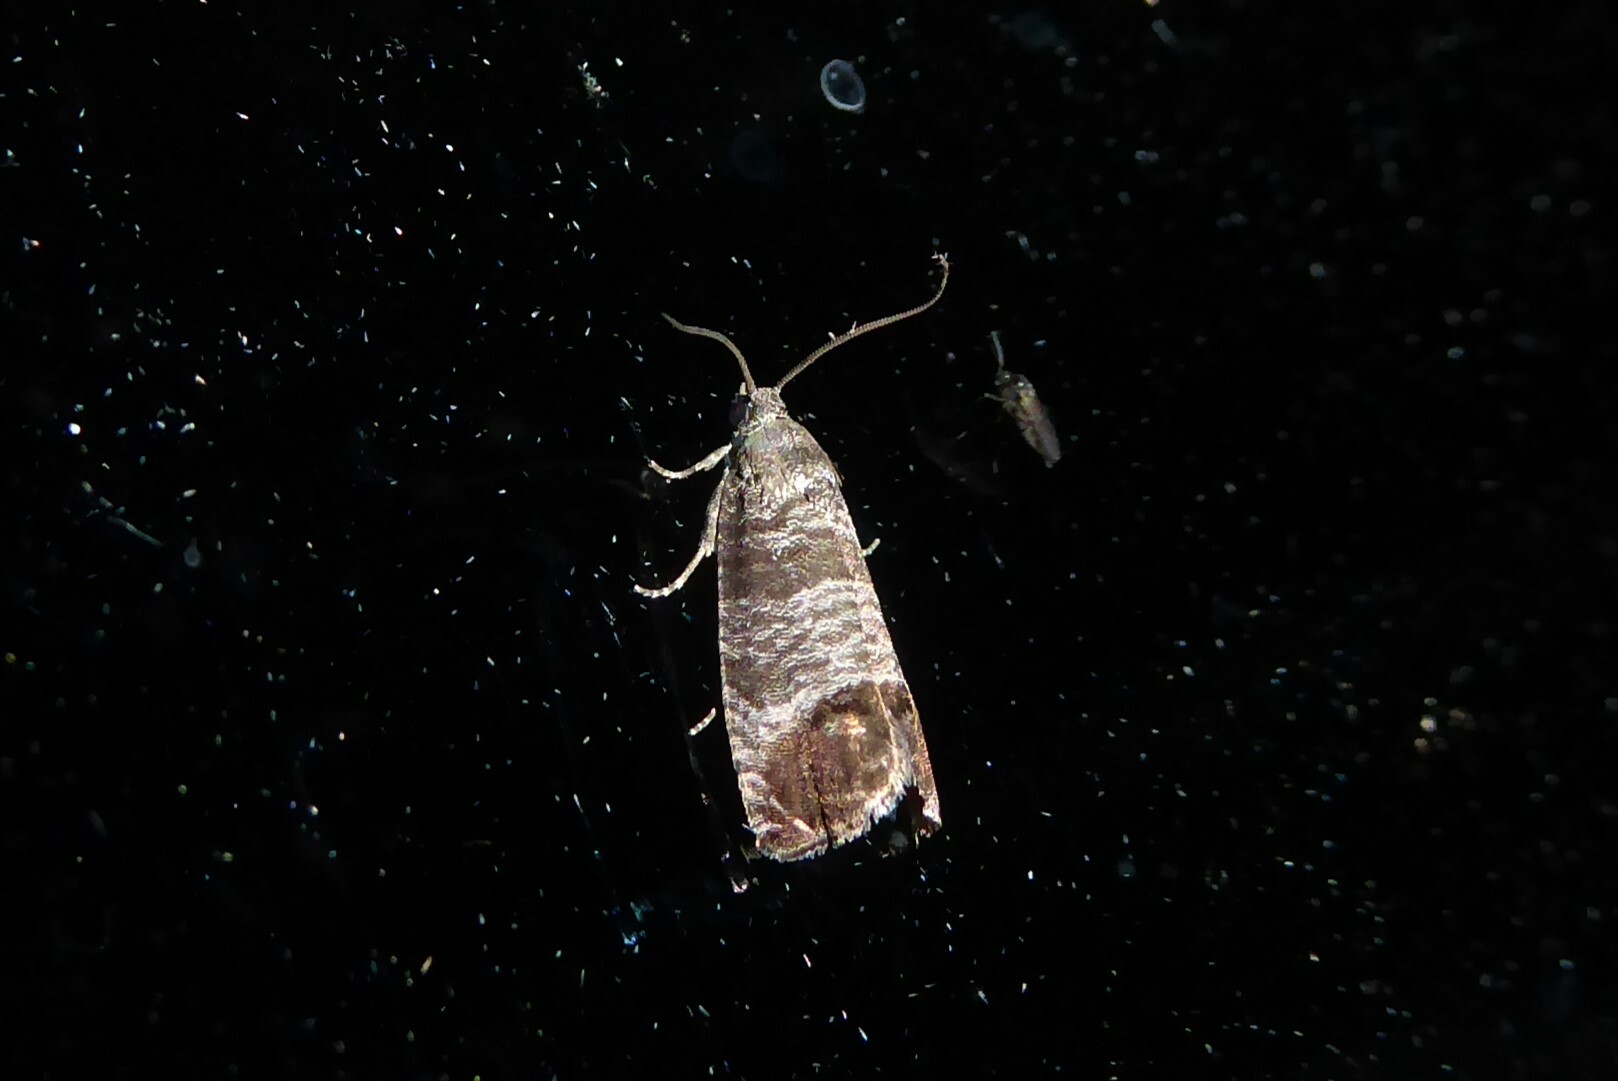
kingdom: Animalia
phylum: Arthropoda
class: Insecta
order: Lepidoptera
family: Tortricidae
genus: Cydia
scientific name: Cydia pomonella
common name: Codling moth
